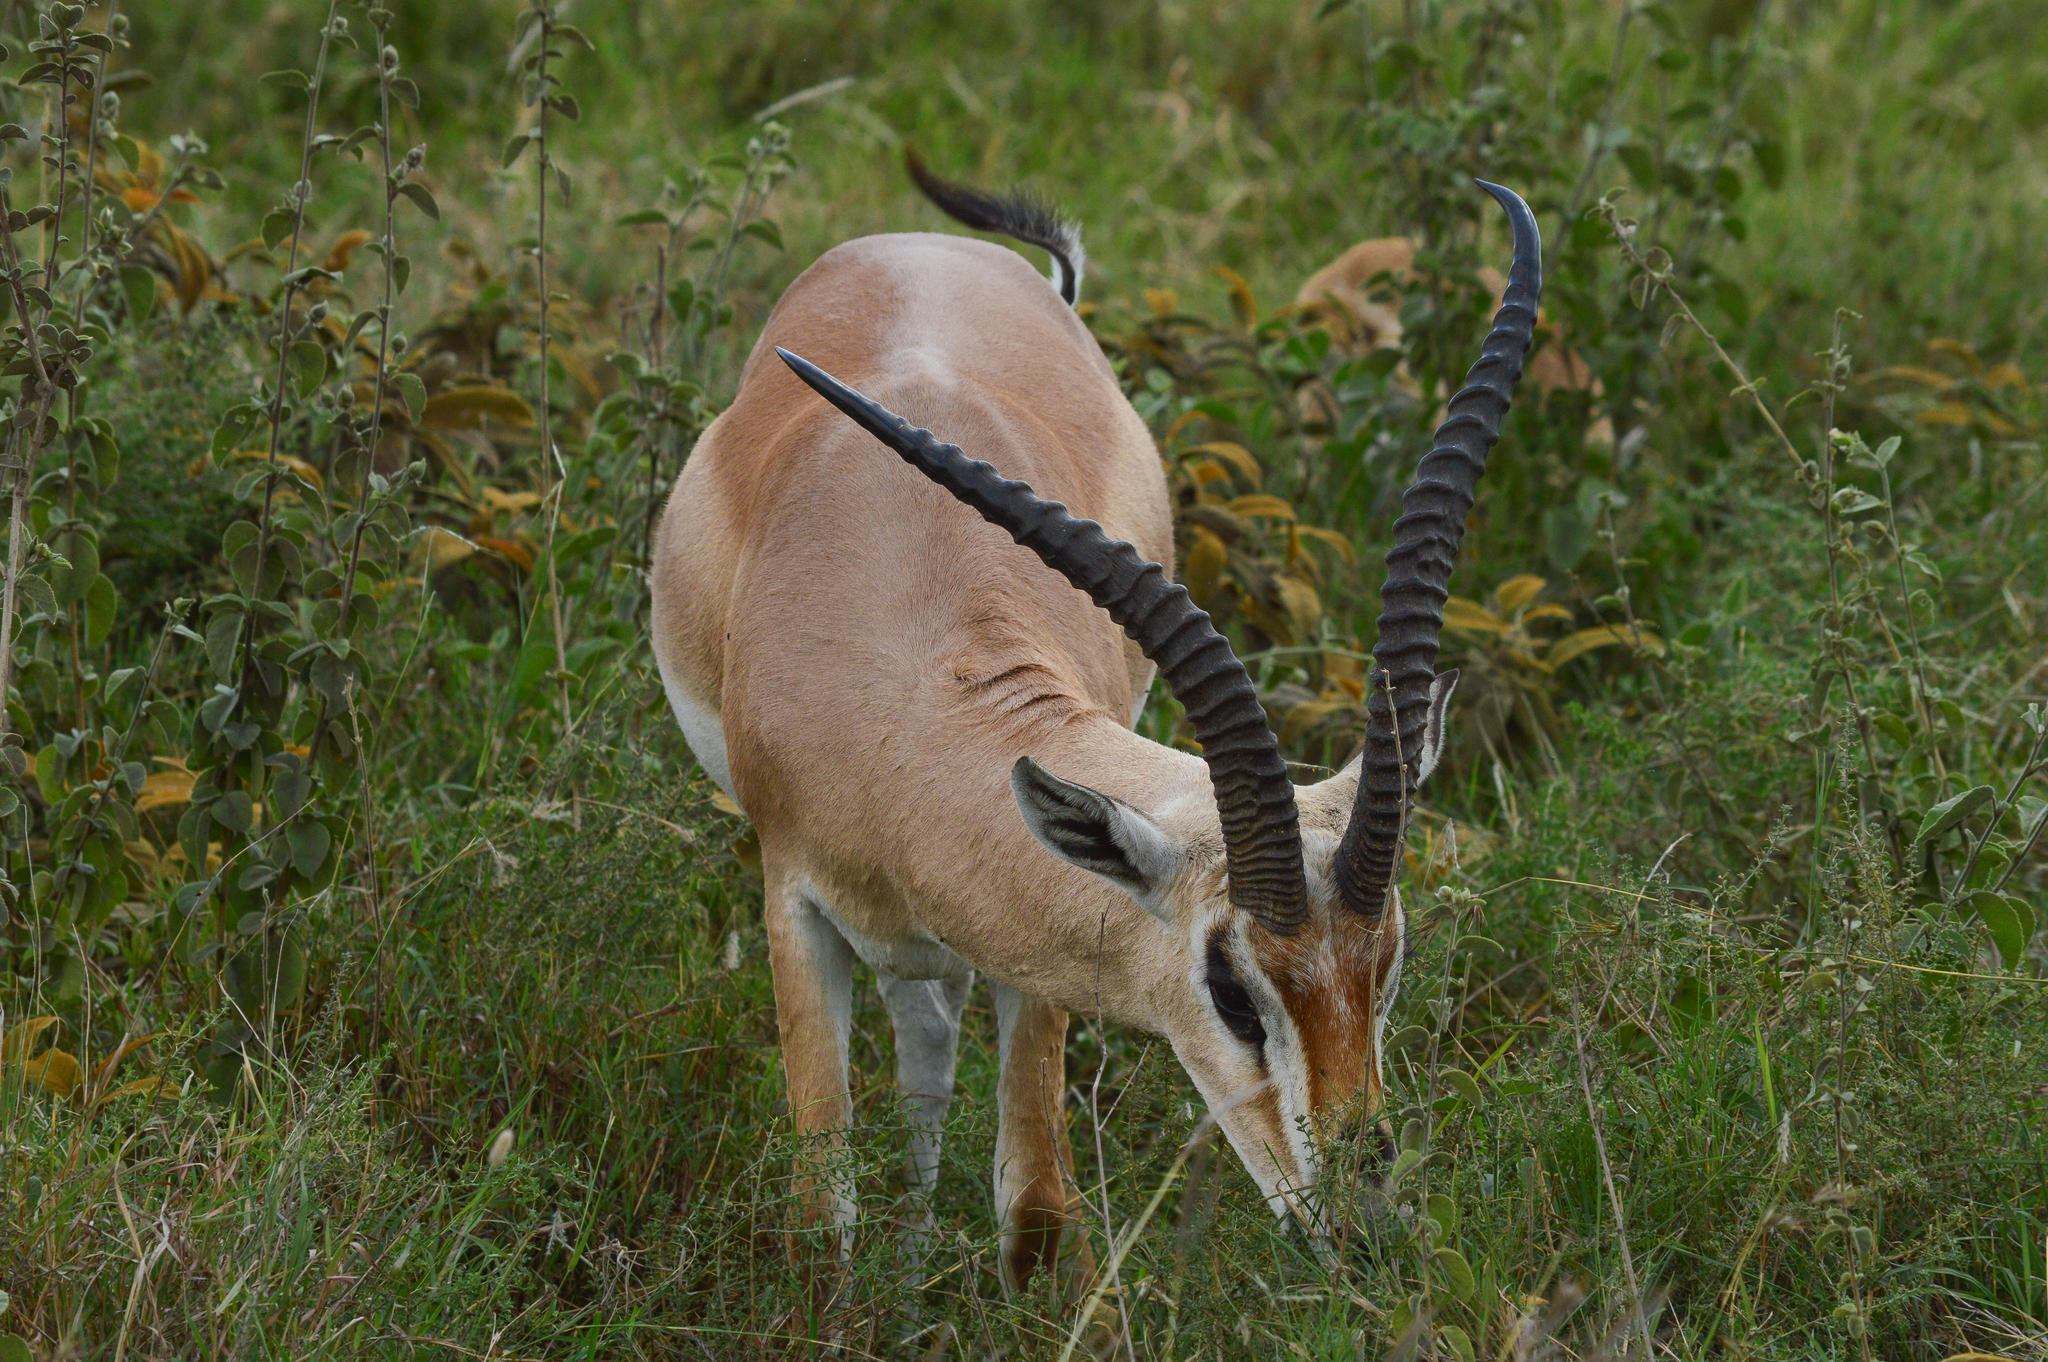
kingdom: Animalia
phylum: Chordata
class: Mammalia
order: Artiodactyla
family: Bovidae
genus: Nanger
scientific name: Nanger granti
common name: Grant's gazelle
